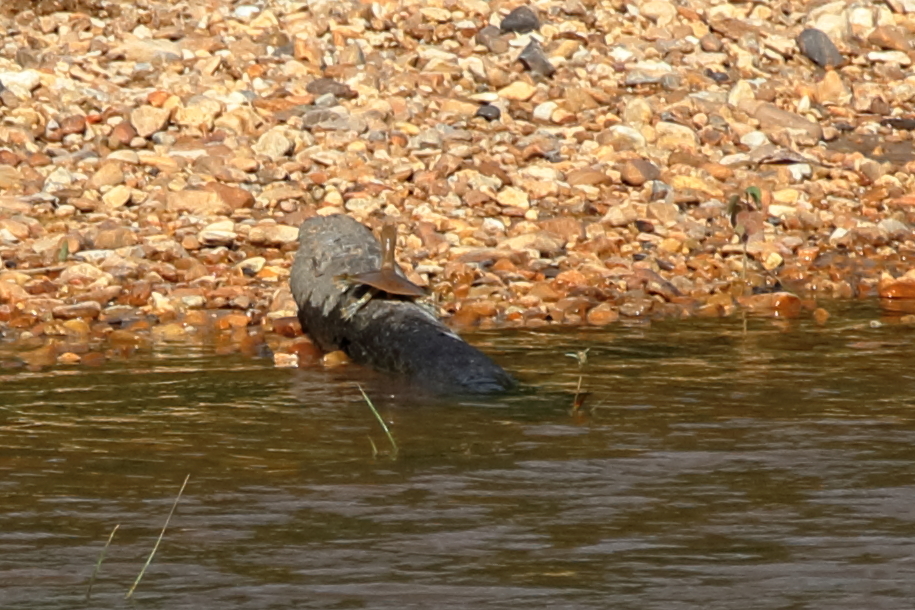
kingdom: Animalia
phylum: Chordata
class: Testudines
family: Trionychidae
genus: Apalone
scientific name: Apalone mutica
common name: Smooth softshell turtle
